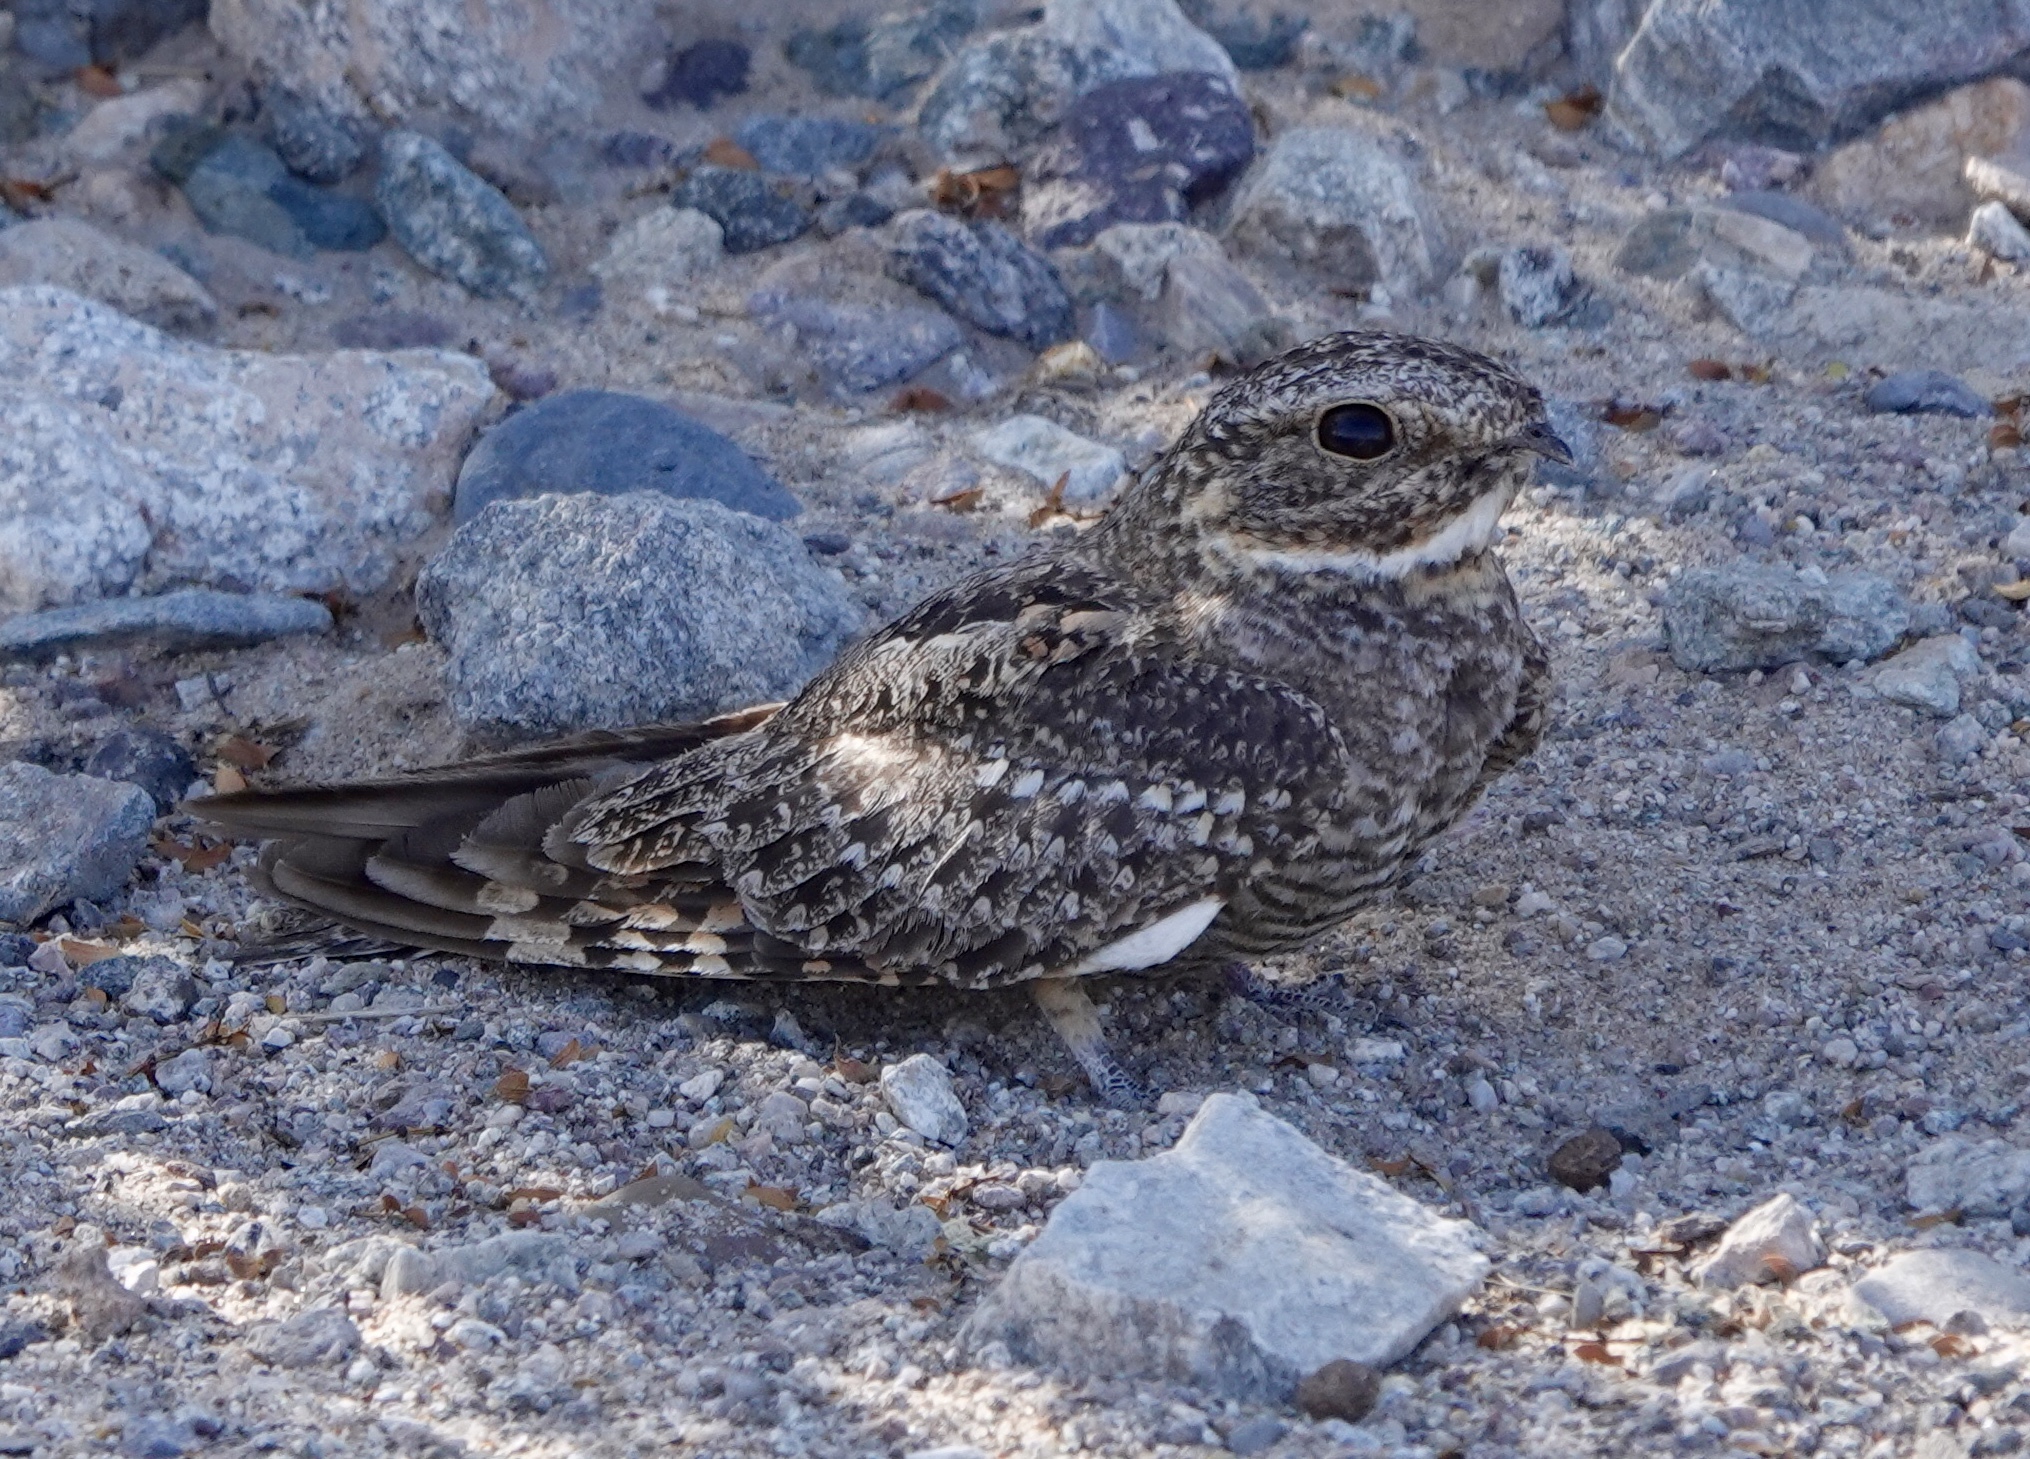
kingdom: Animalia
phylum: Chordata
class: Aves
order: Caprimulgiformes
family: Caprimulgidae
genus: Chordeiles
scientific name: Chordeiles acutipennis
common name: Lesser nighthawk
